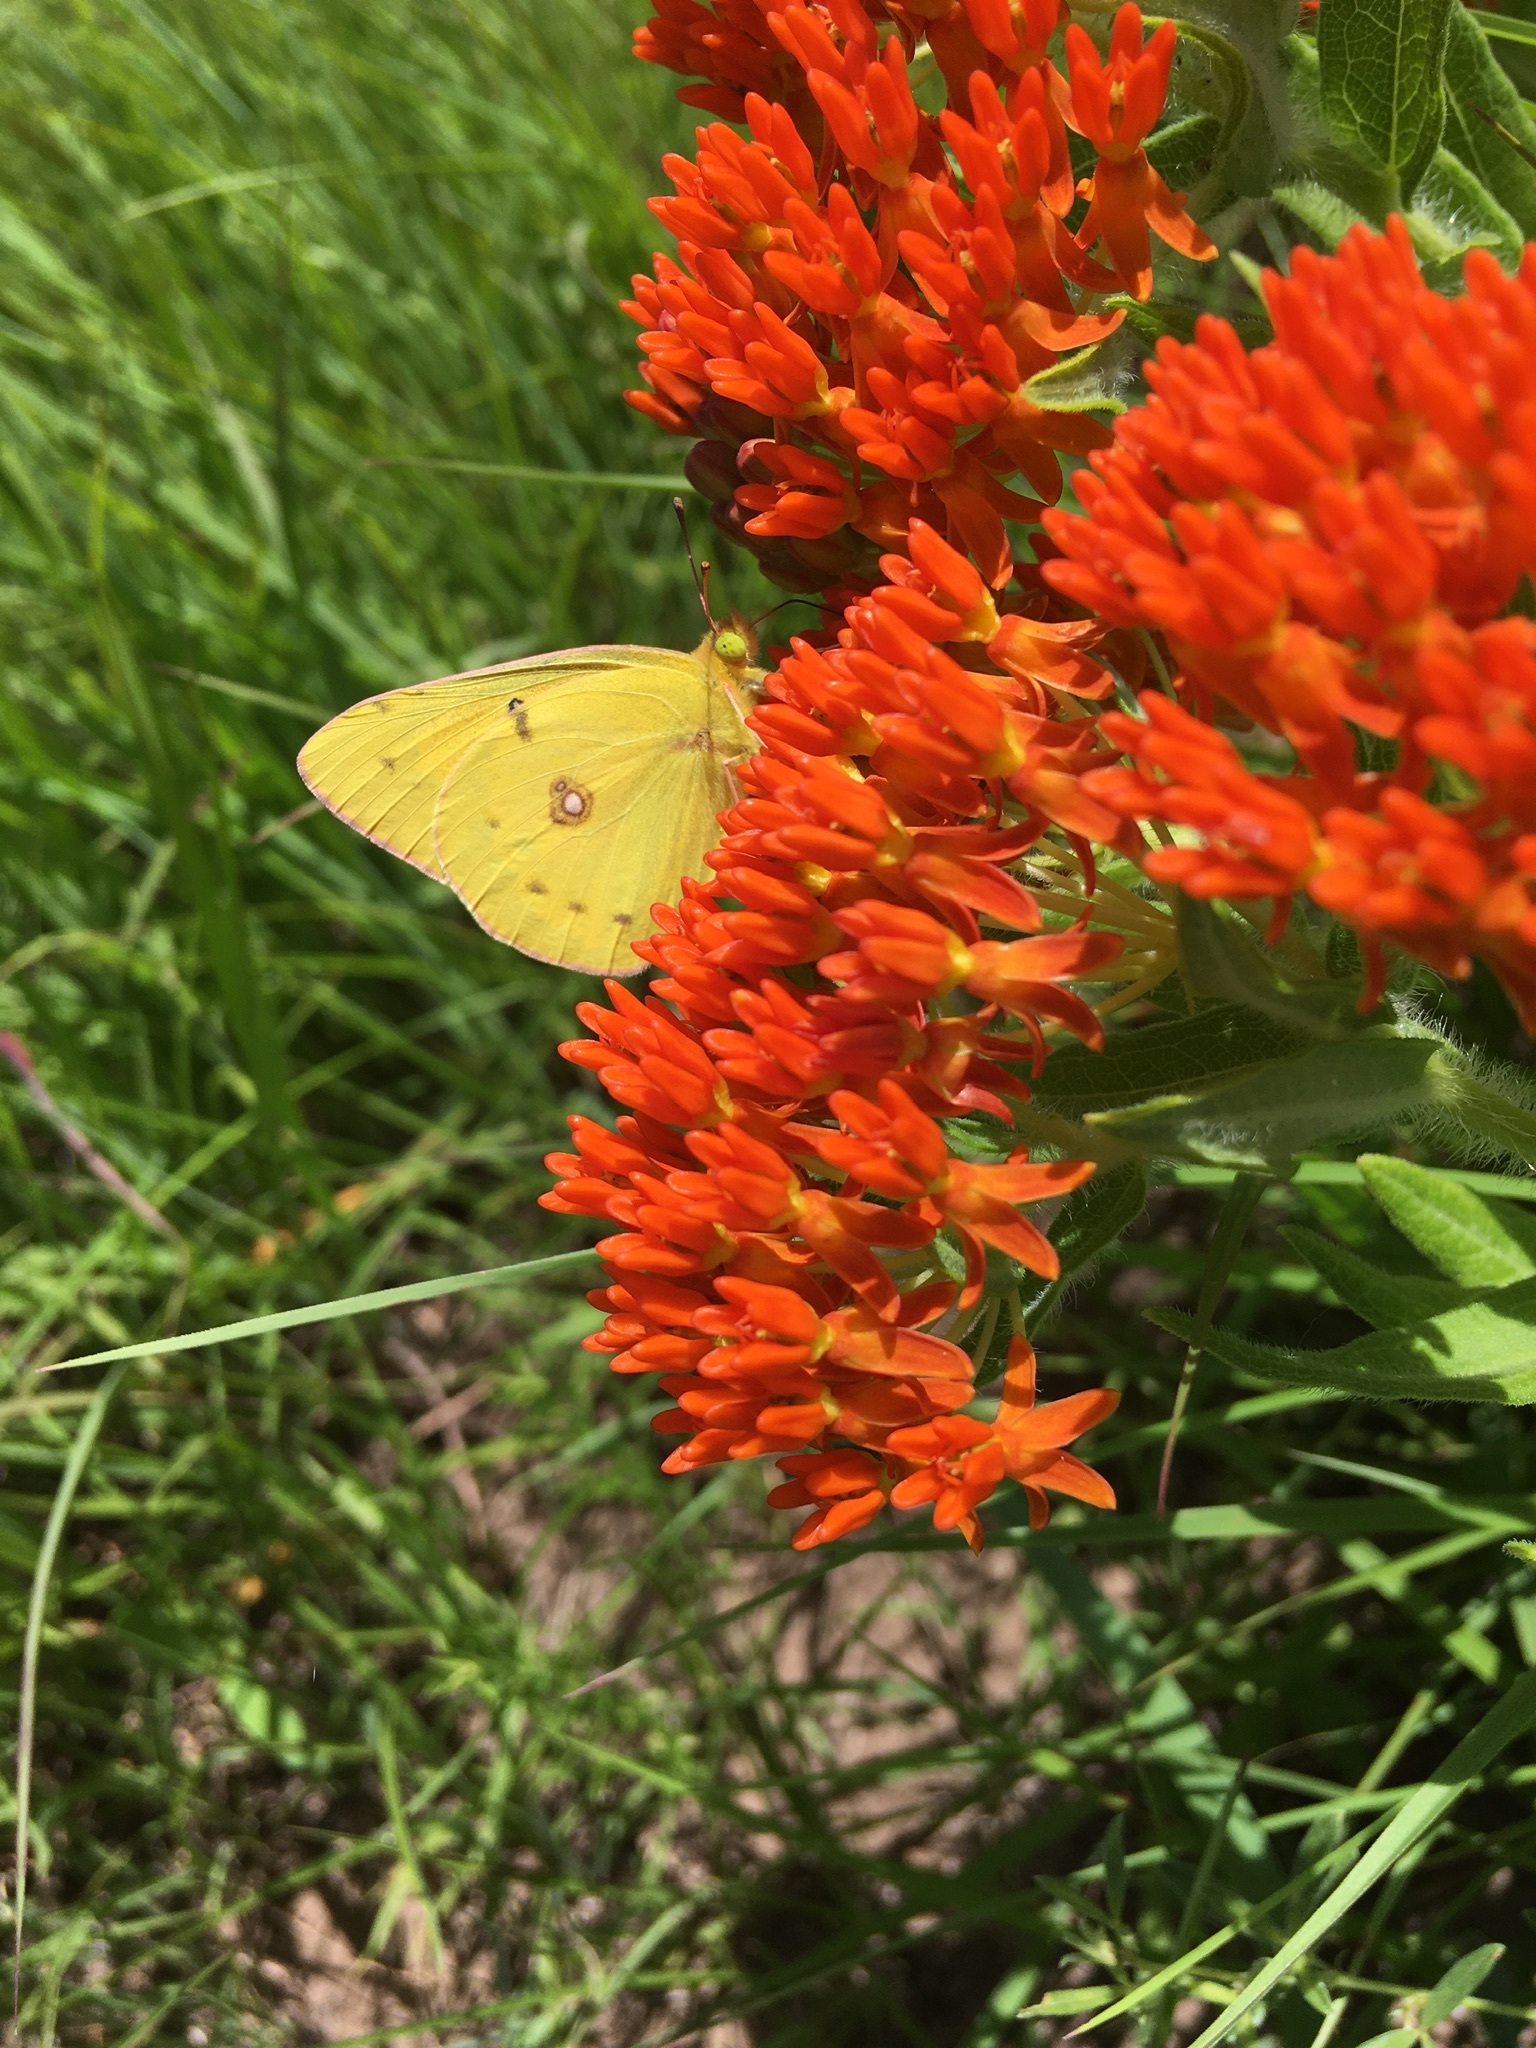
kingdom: Animalia
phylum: Arthropoda
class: Insecta
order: Lepidoptera
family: Pieridae
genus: Colias
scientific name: Colias eurytheme
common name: Alfalfa butterfly
